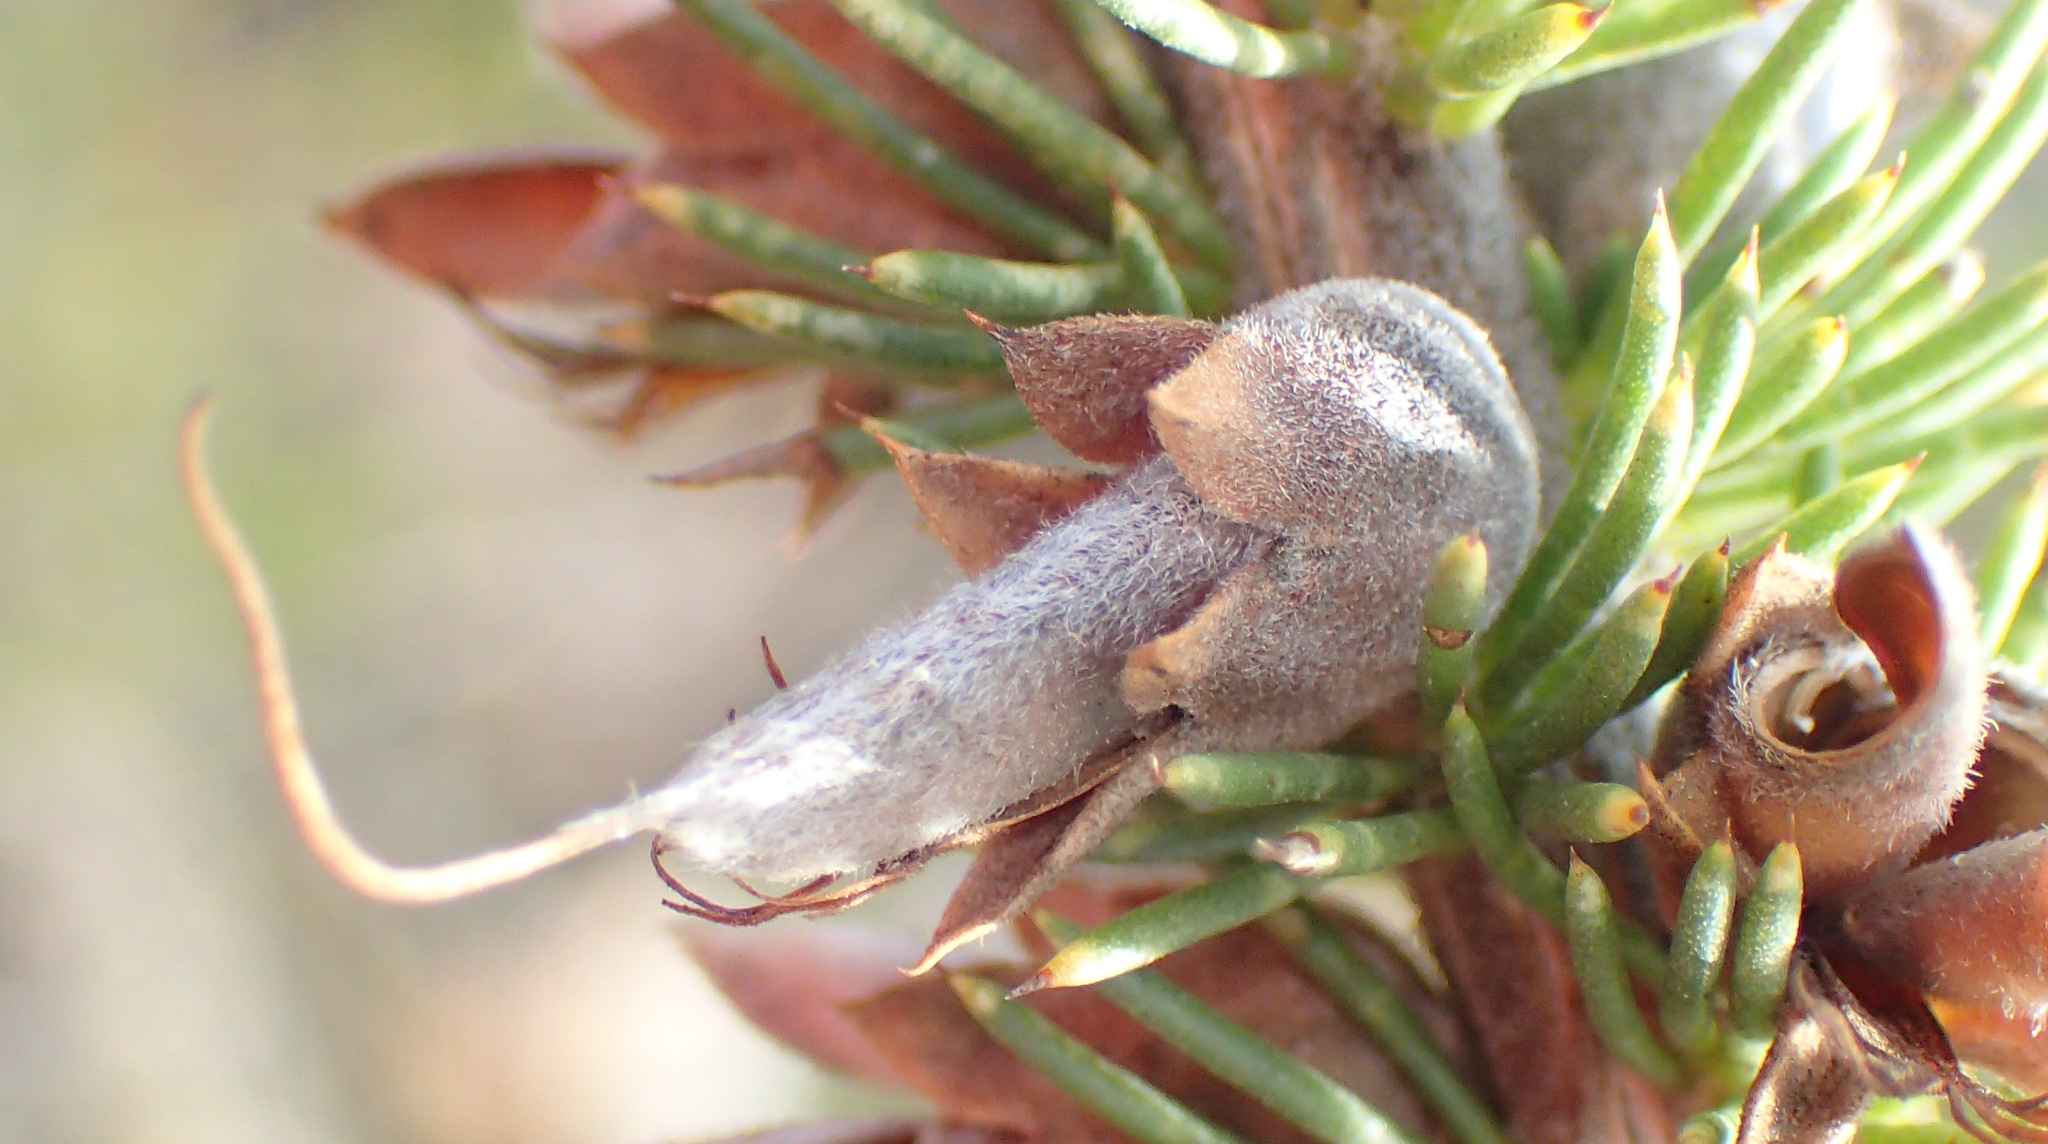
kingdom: Plantae
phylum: Tracheophyta
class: Magnoliopsida
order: Fabales
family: Fabaceae
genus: Aspalathus
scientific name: Aspalathus sceptrumaureum
